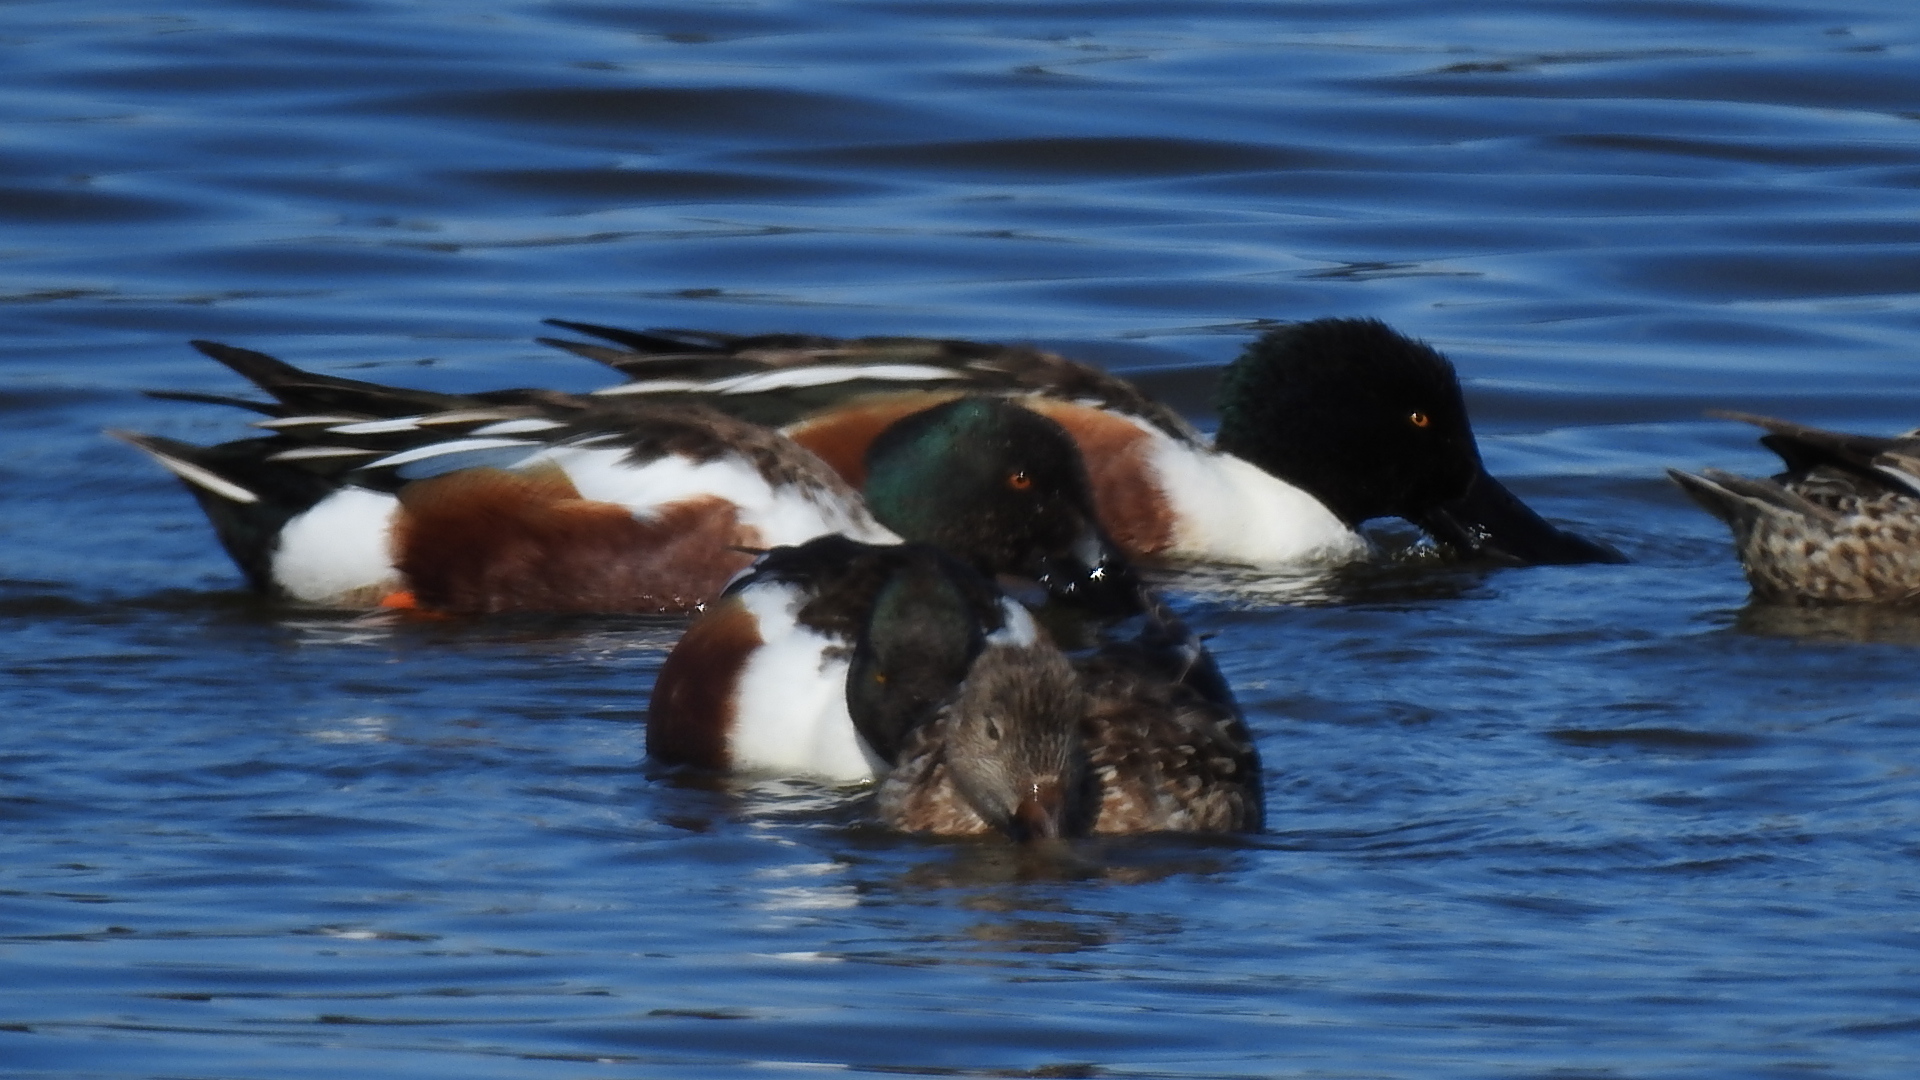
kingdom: Animalia
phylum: Chordata
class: Aves
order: Anseriformes
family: Anatidae
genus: Spatula
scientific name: Spatula clypeata
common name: Northern shoveler
